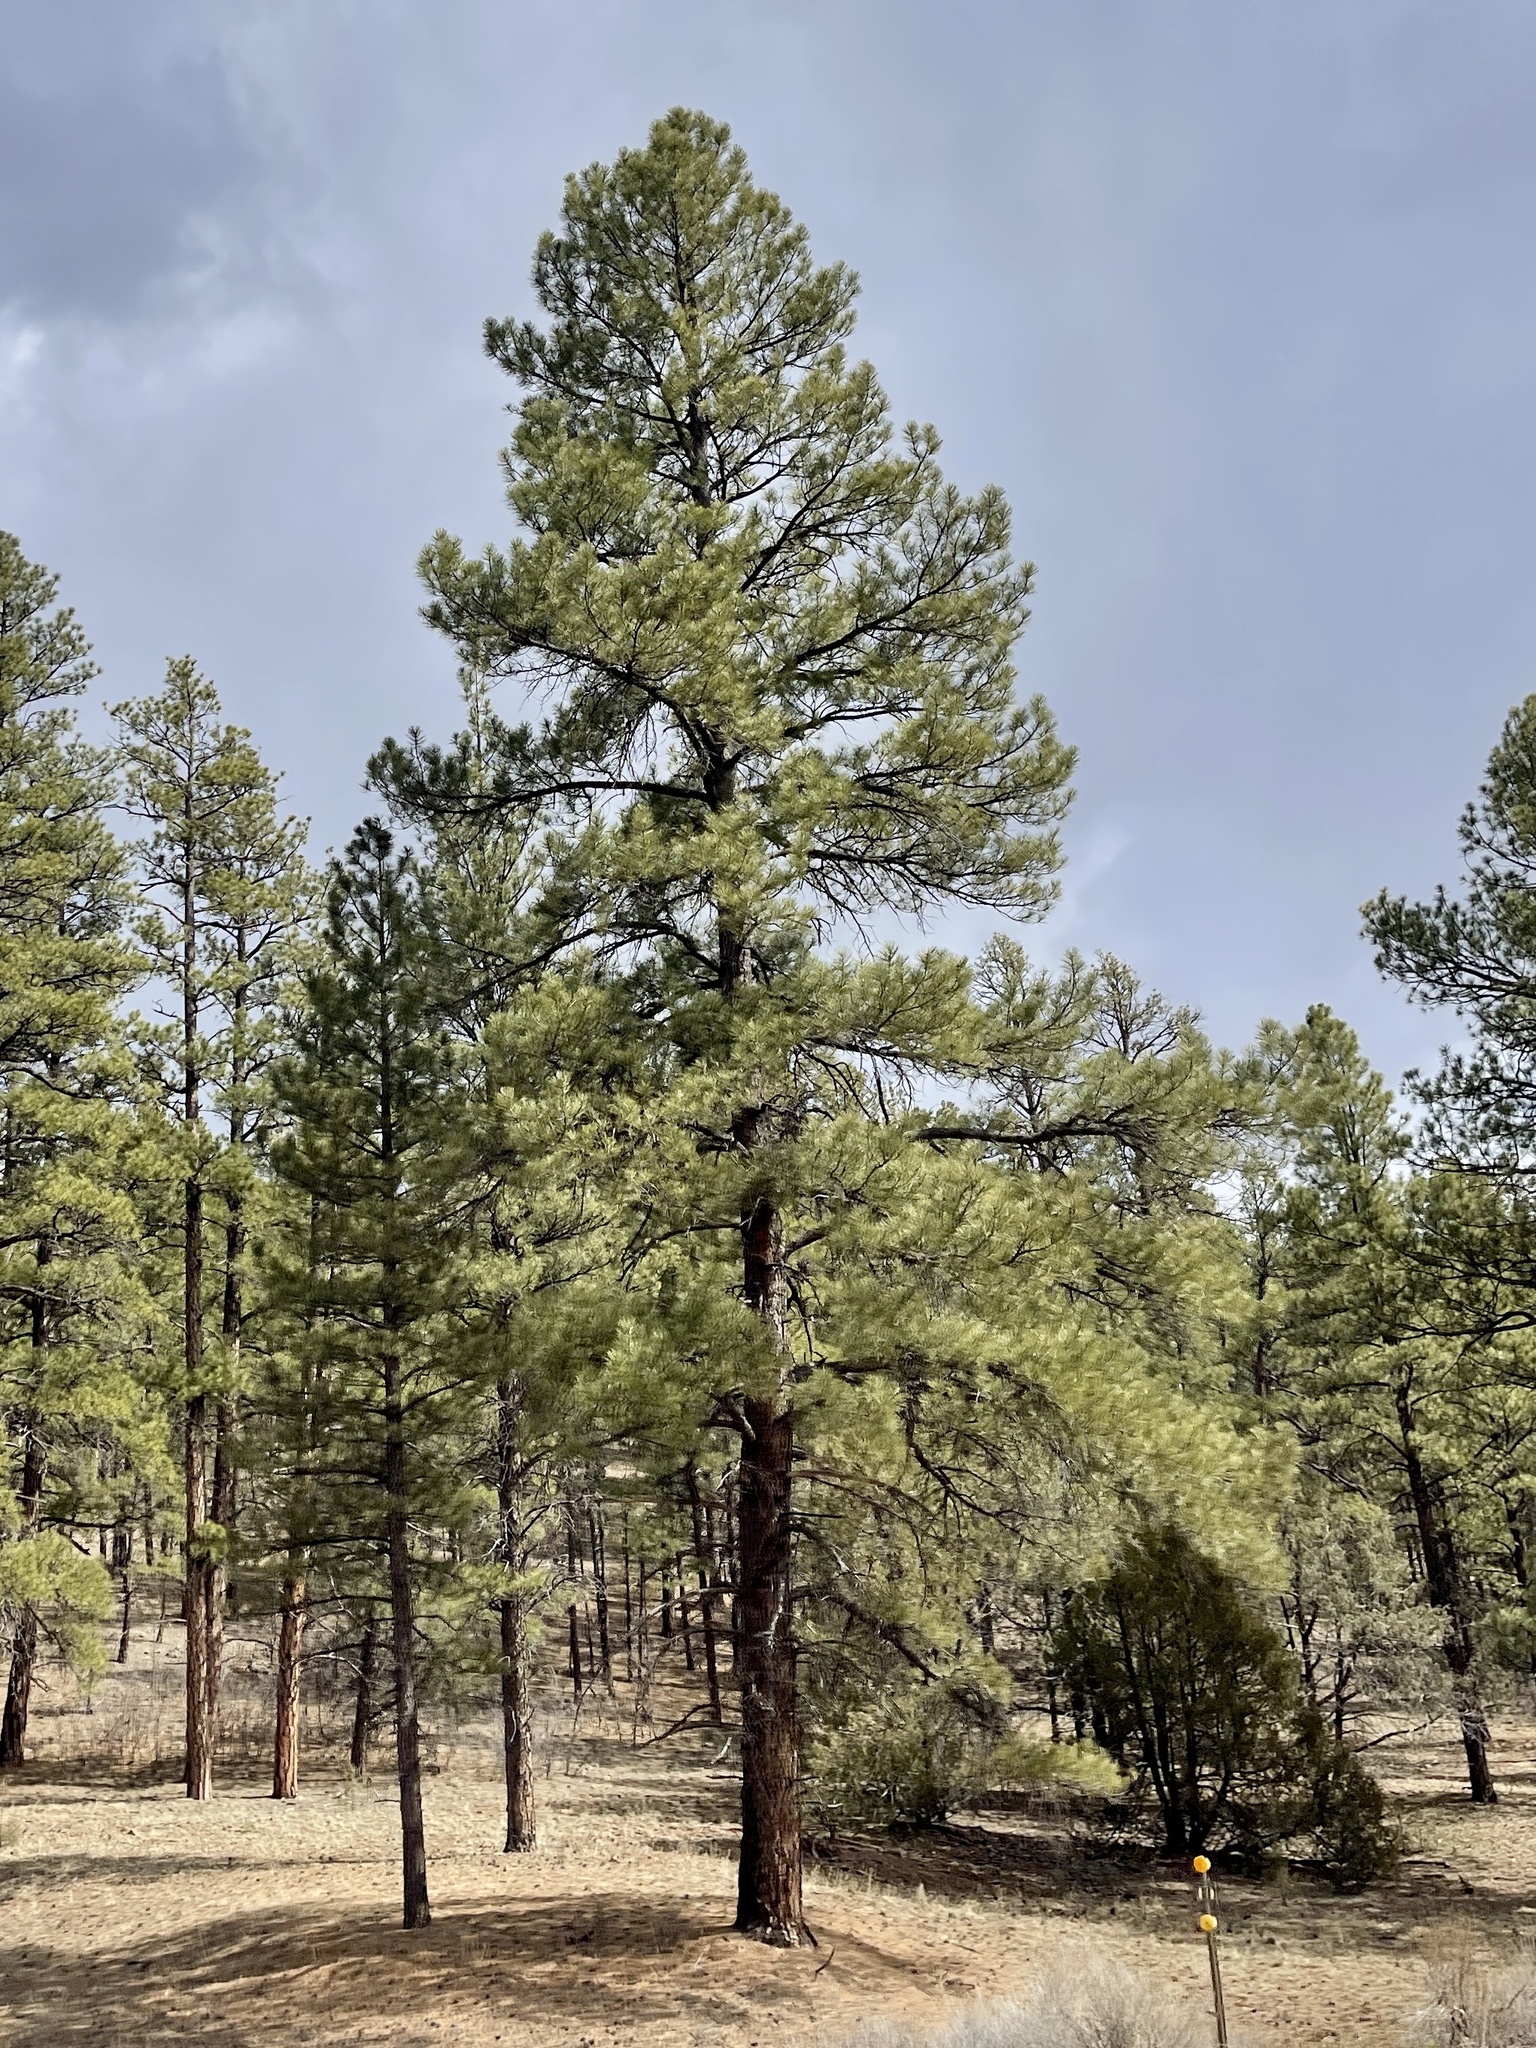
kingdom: Plantae
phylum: Tracheophyta
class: Pinopsida
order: Pinales
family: Pinaceae
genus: Pinus
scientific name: Pinus ponderosa
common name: Western yellow-pine
